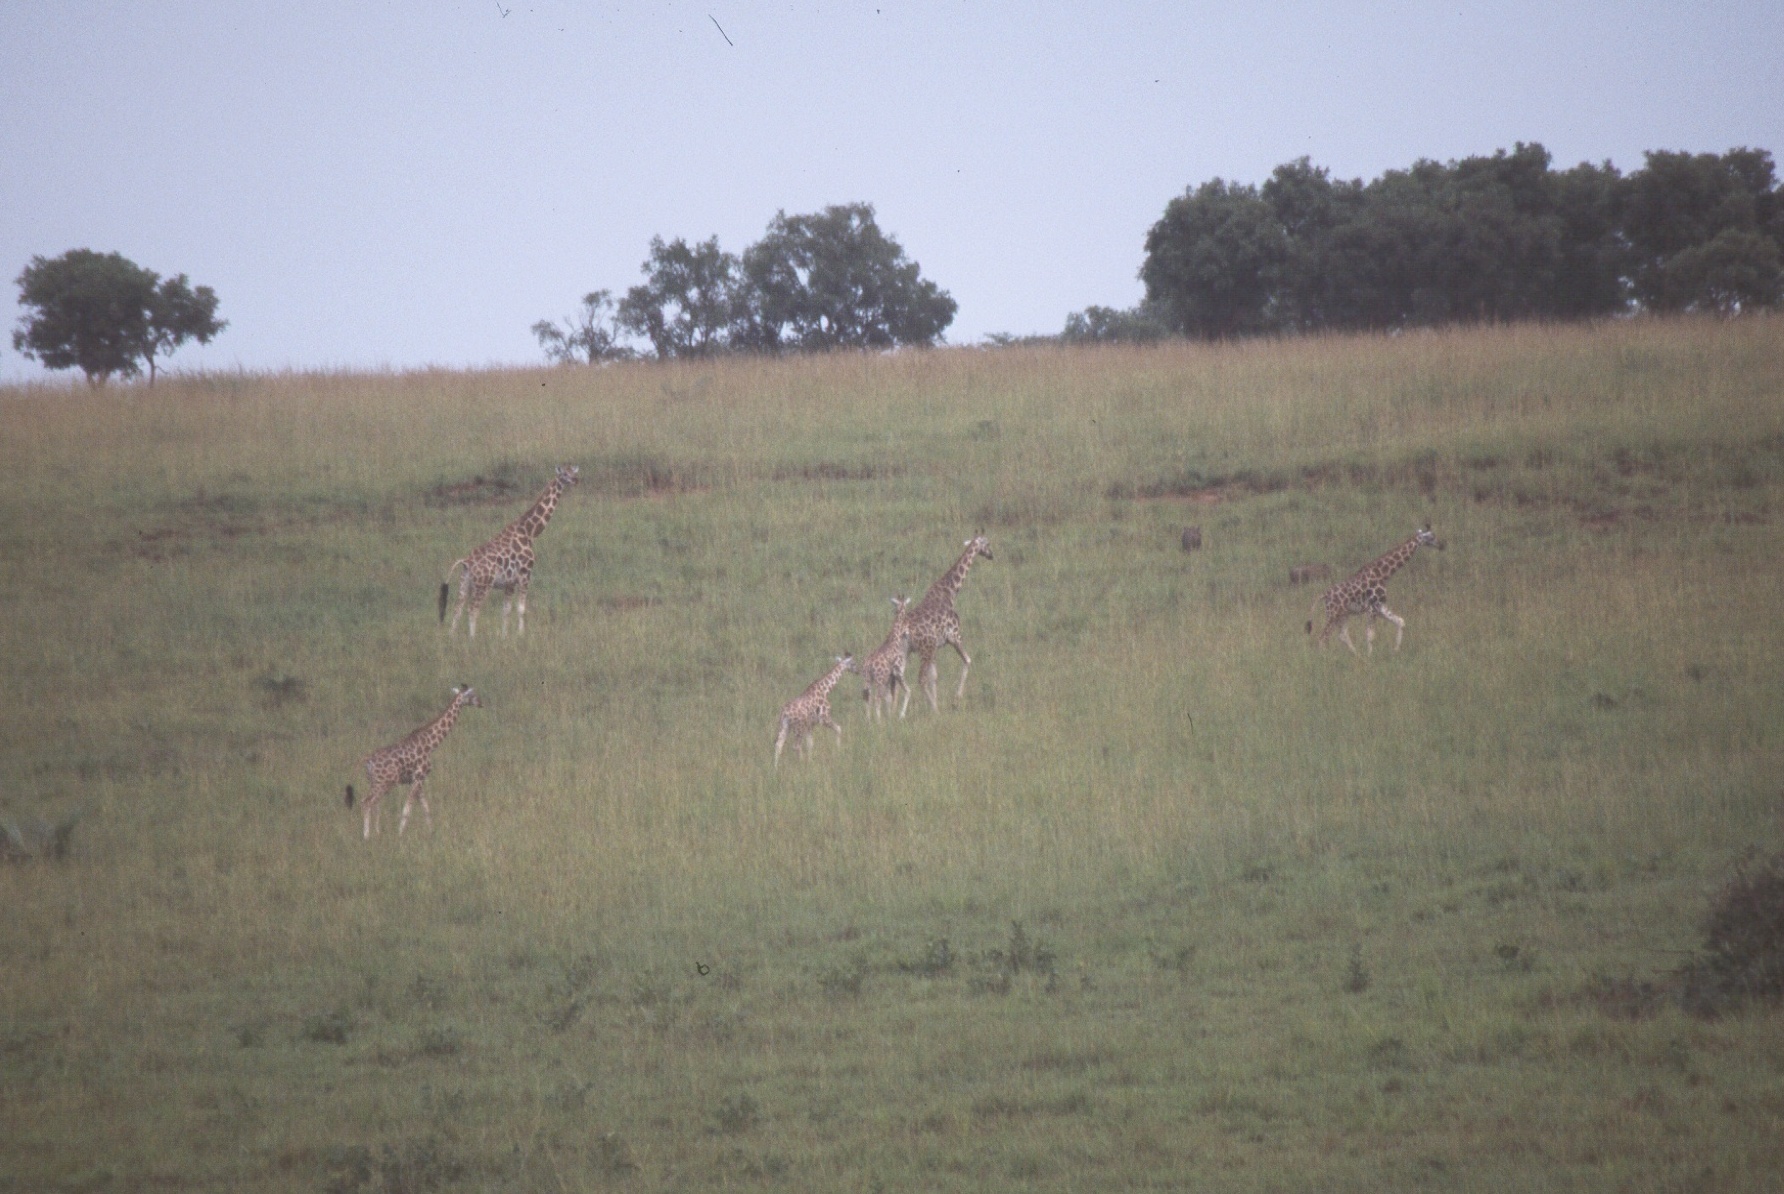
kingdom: Animalia
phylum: Chordata
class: Mammalia
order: Artiodactyla
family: Giraffidae
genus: Giraffa
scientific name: Giraffa camelopardalis
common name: Giraffe
